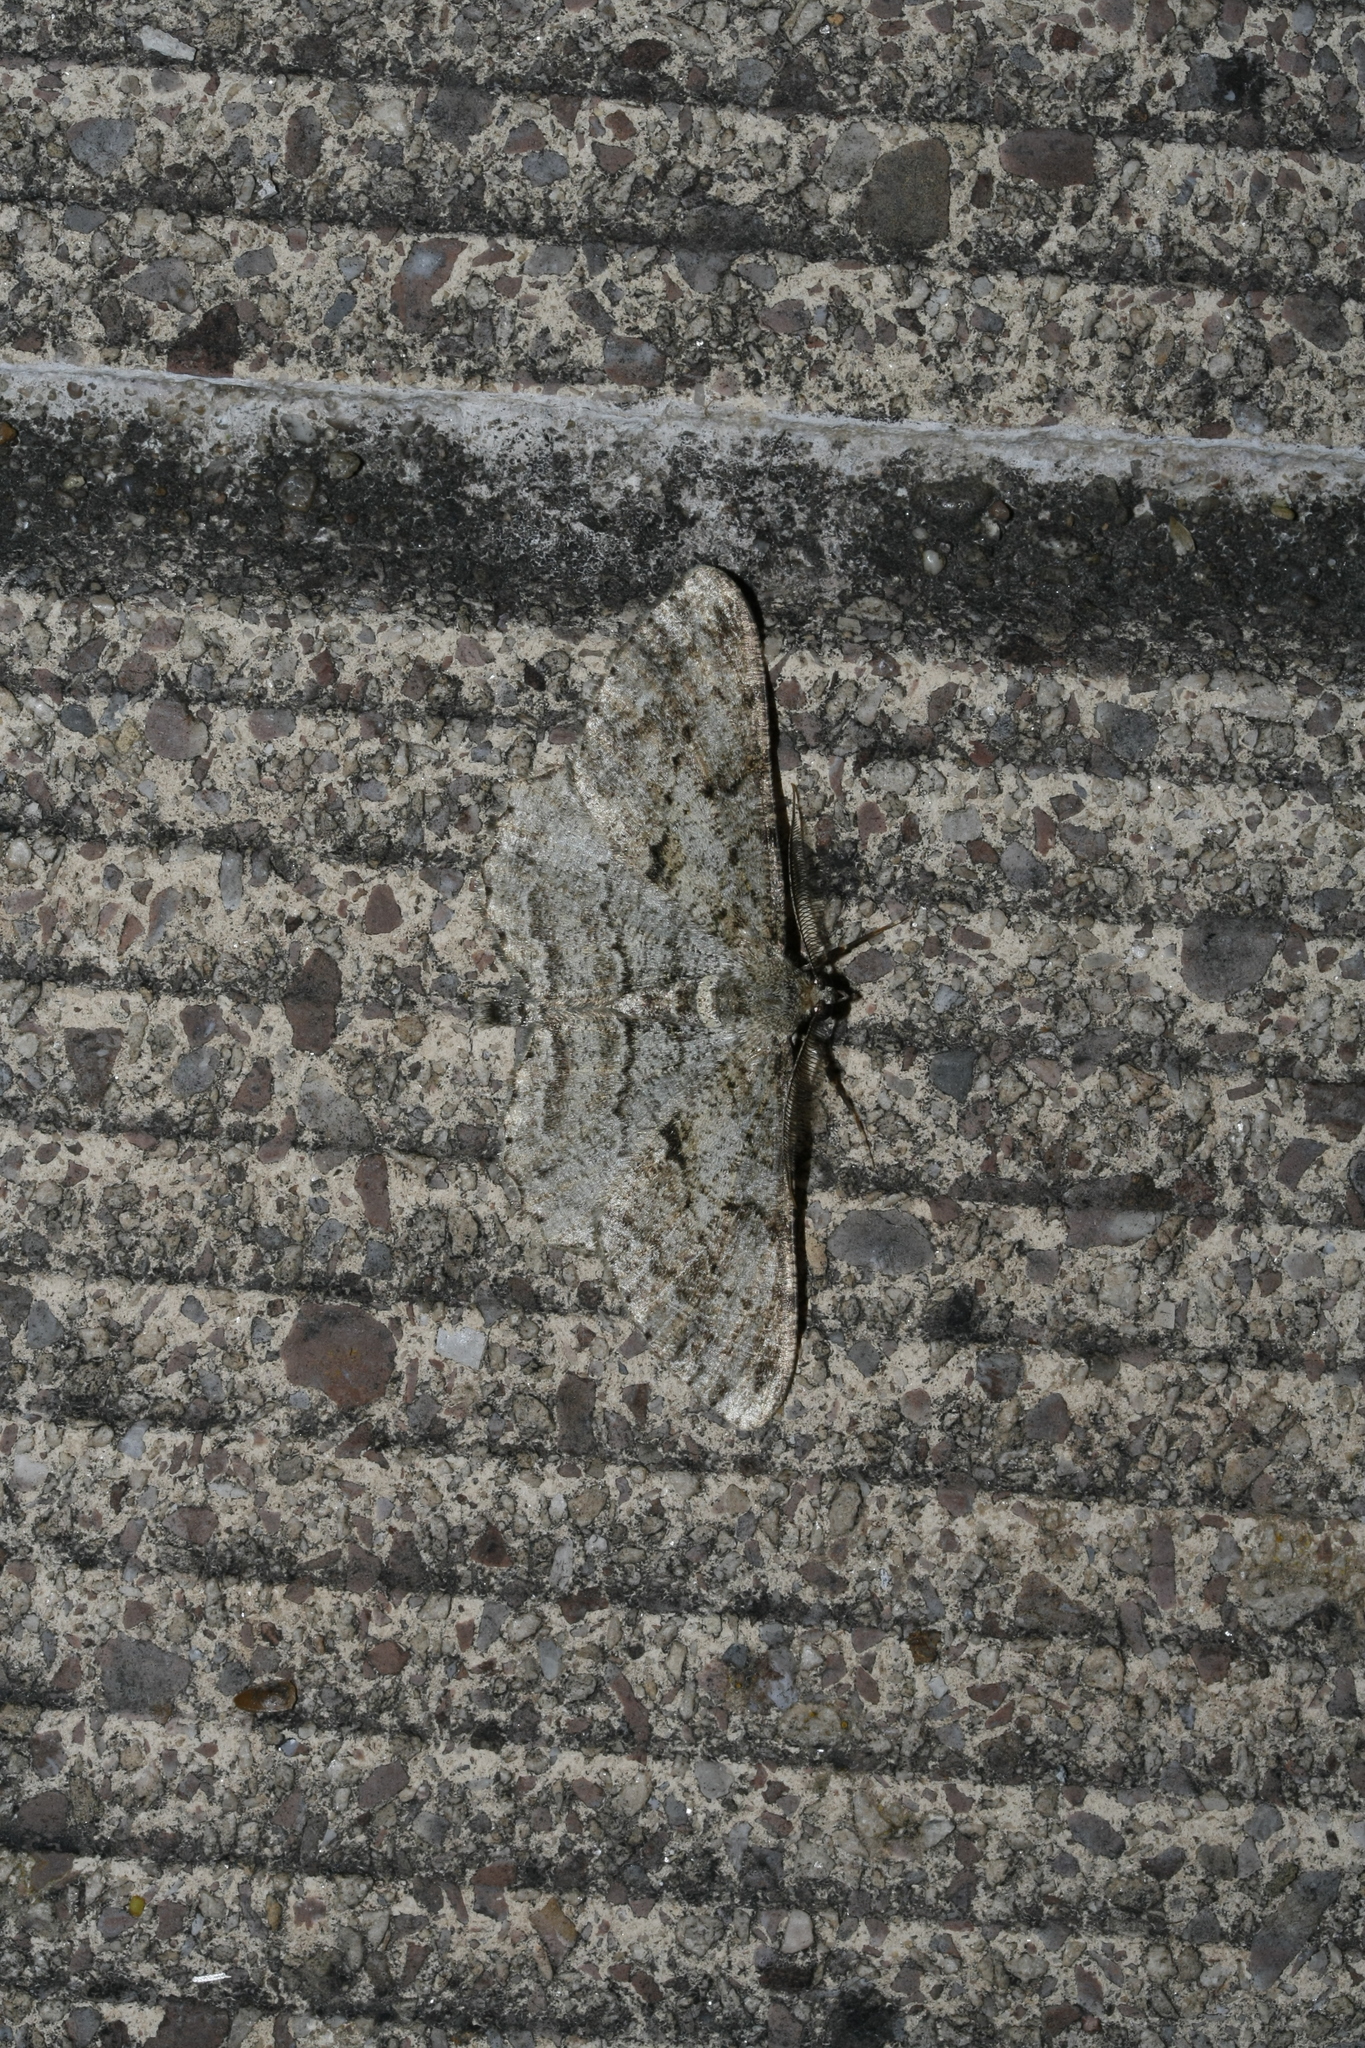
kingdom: Animalia
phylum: Arthropoda
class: Insecta
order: Lepidoptera
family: Geometridae
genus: Peribatodes
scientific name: Peribatodes rhomboidaria
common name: Willow beauty
